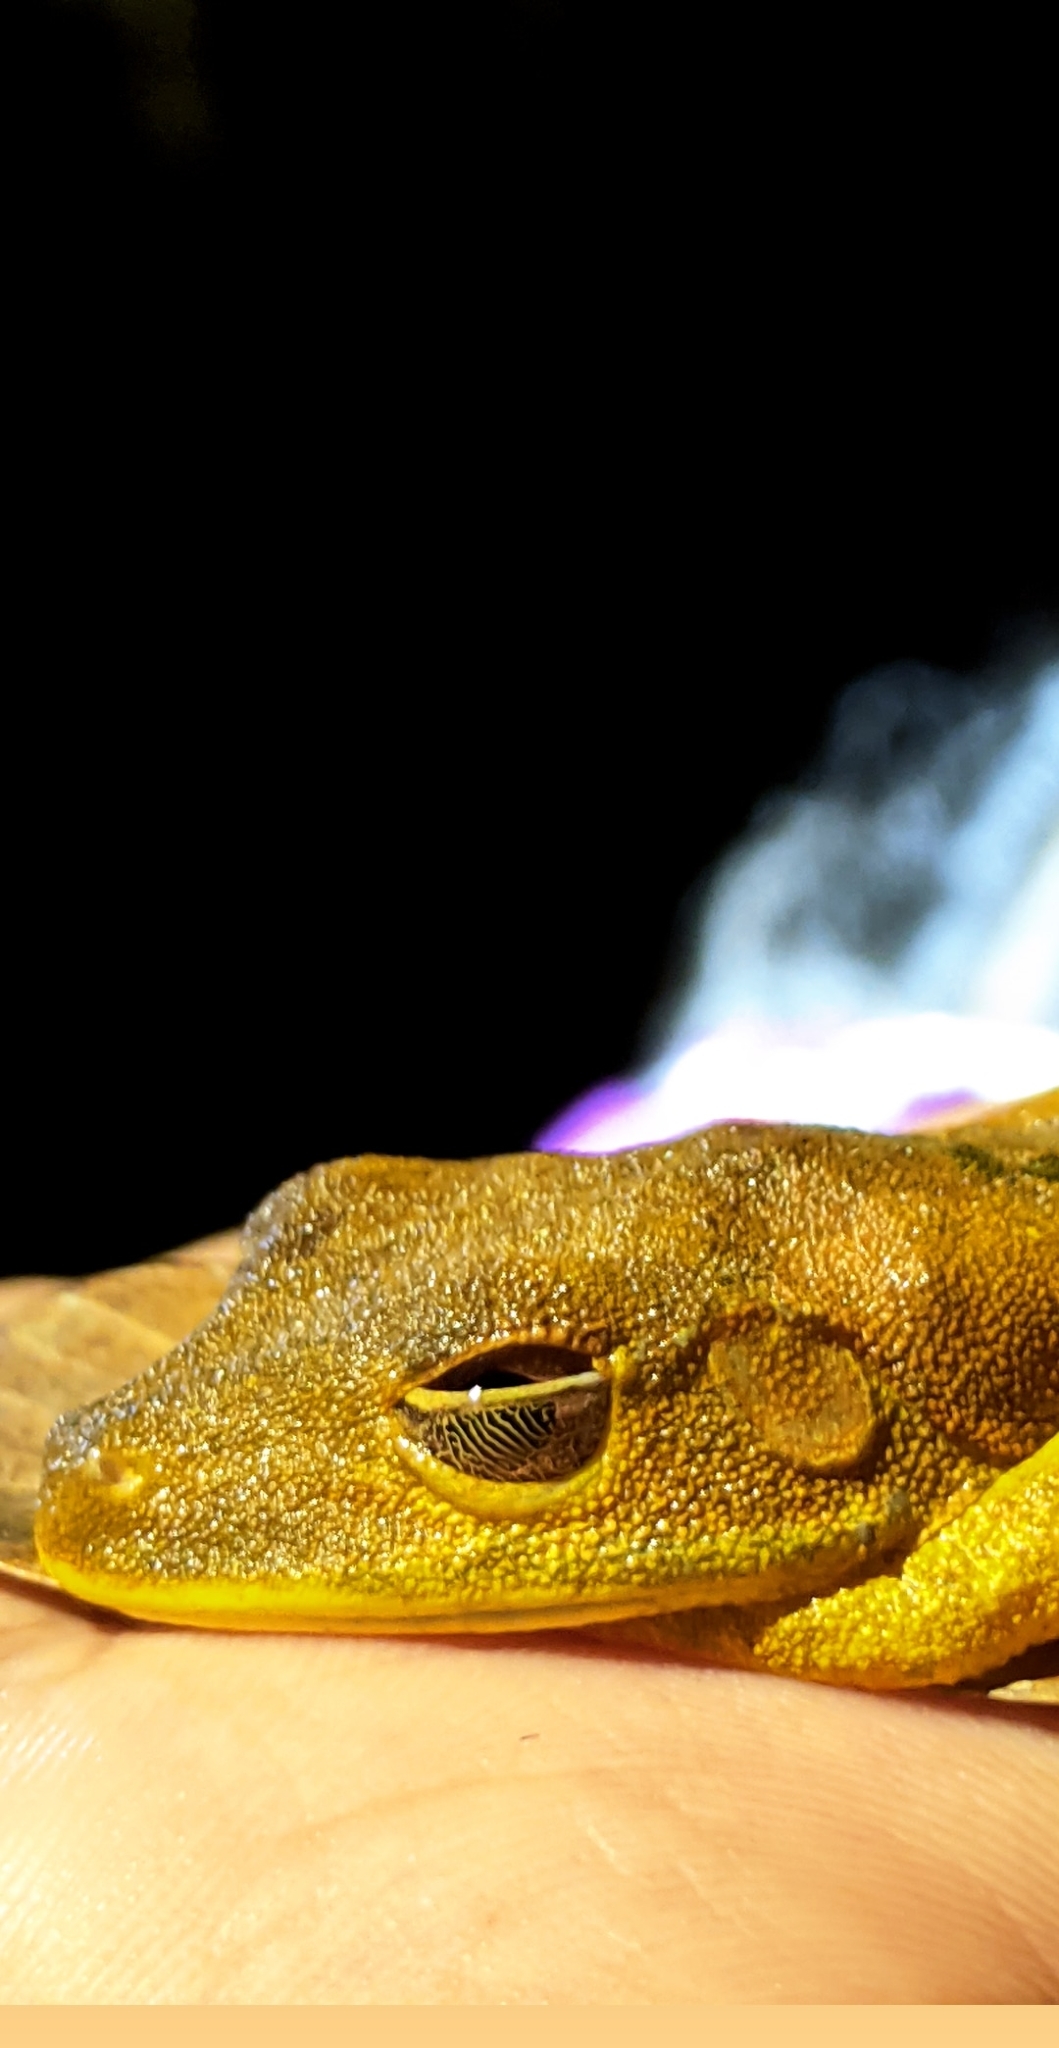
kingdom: Animalia
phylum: Chordata
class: Amphibia
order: Anura
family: Hylidae
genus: Boana
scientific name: Boana geographica
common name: Map treefrog
